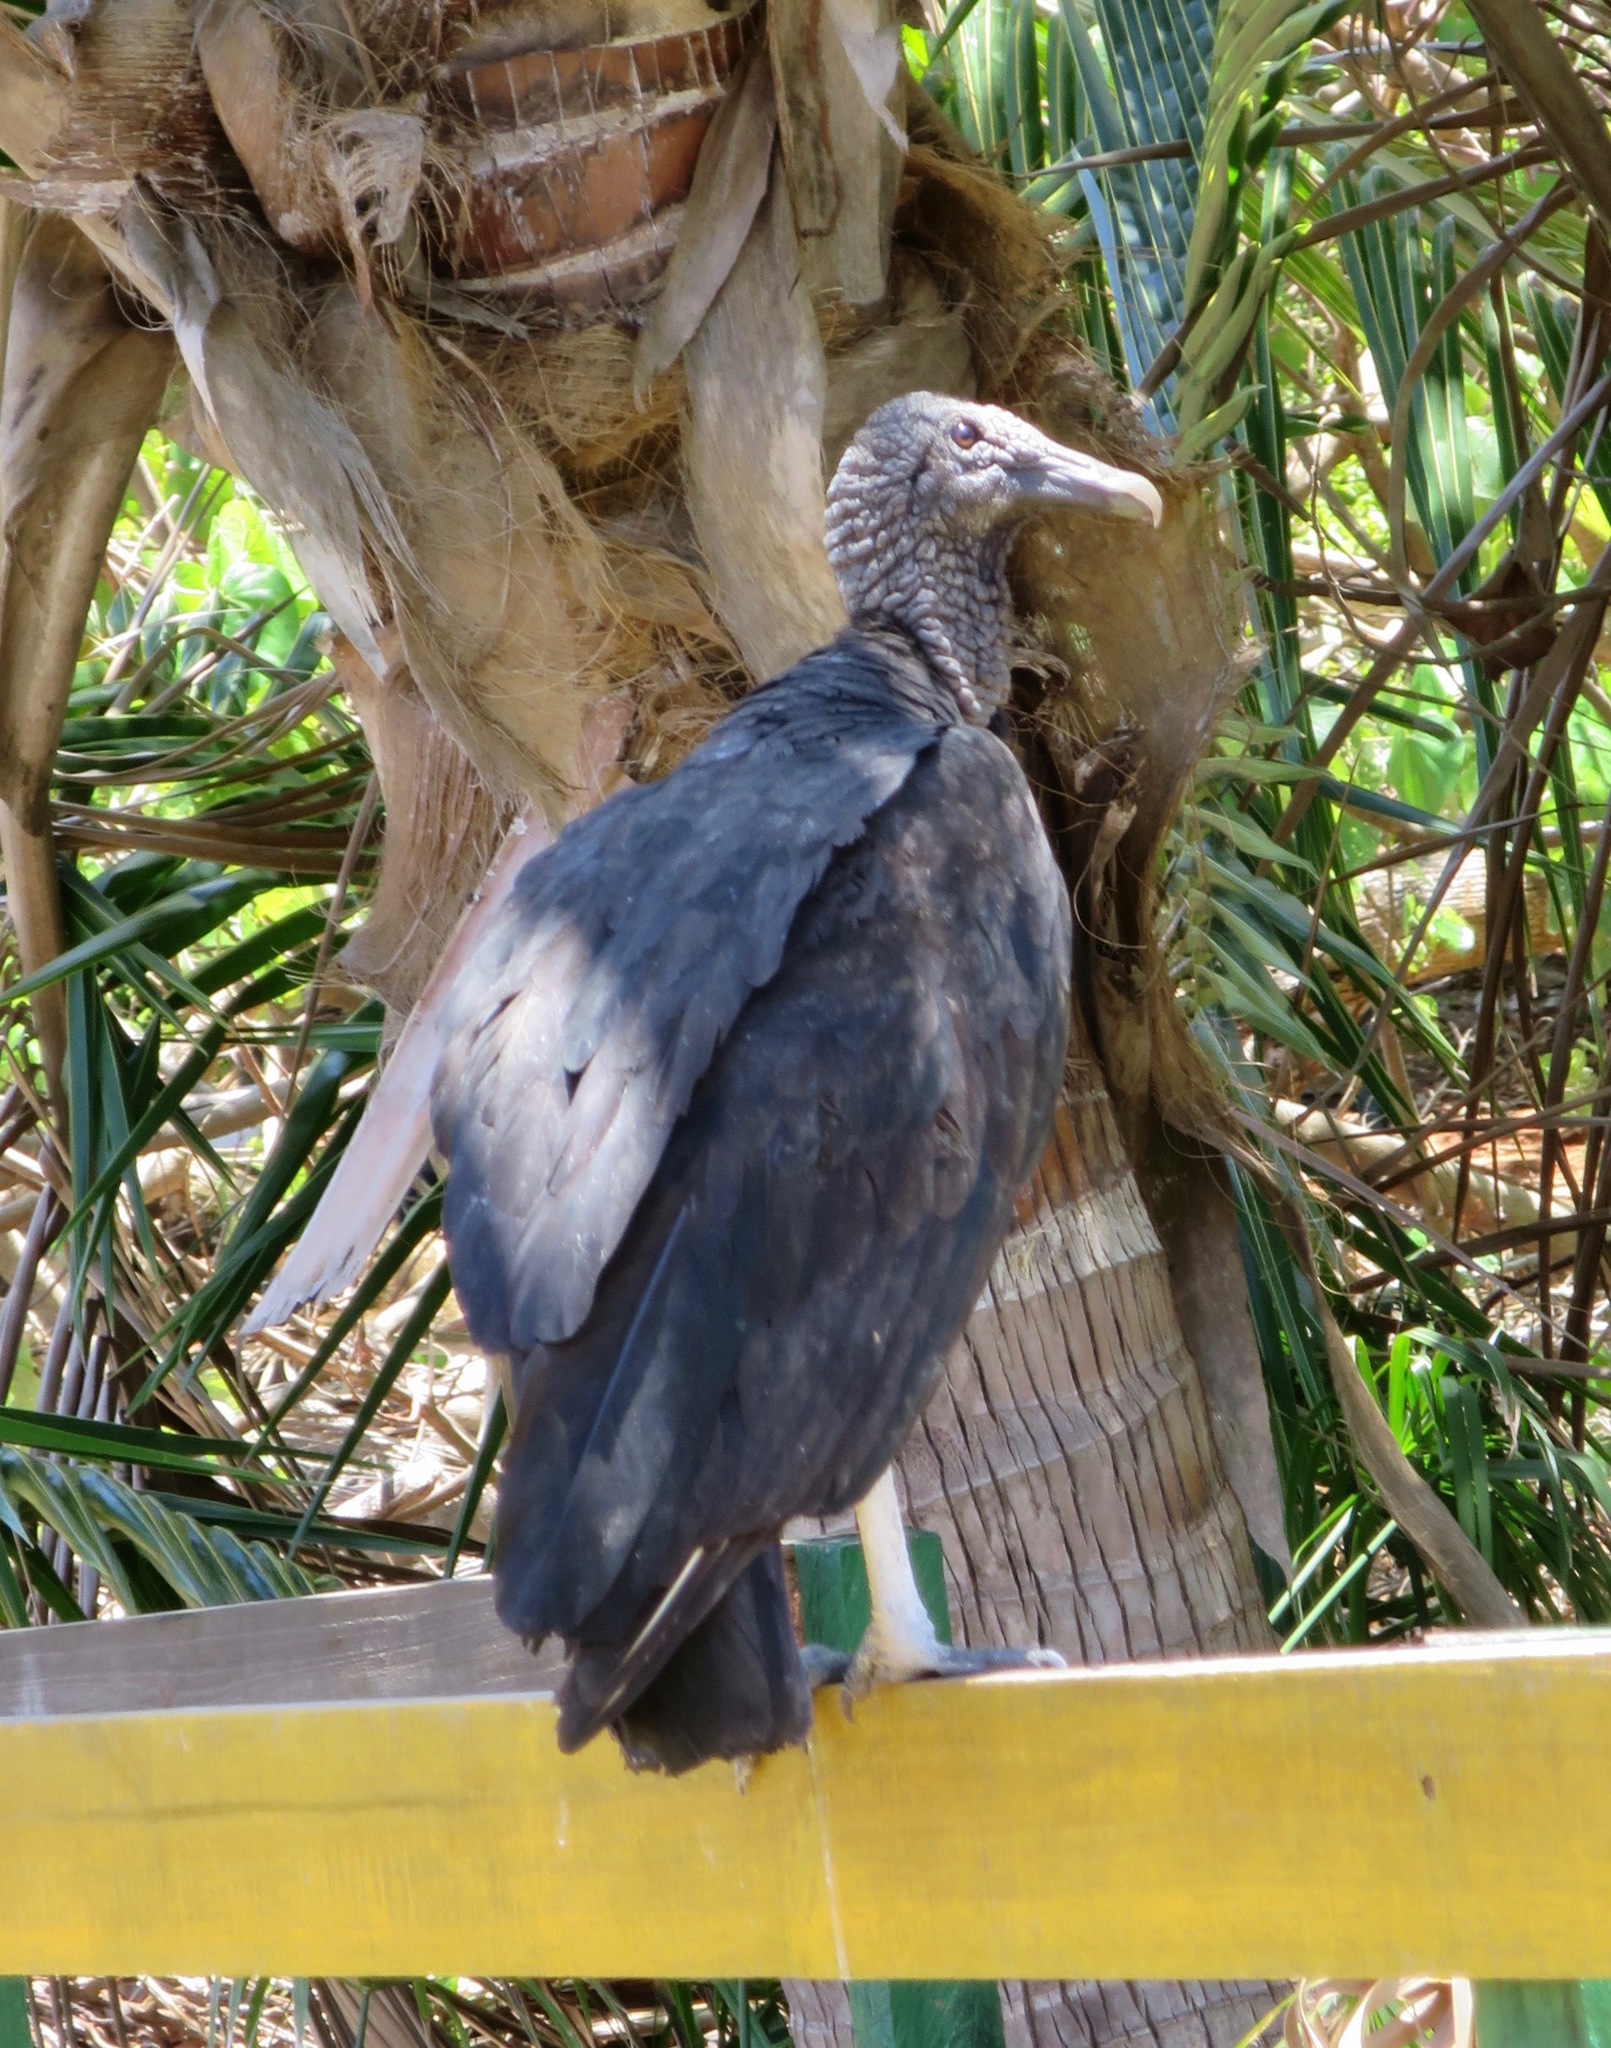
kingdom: Animalia
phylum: Chordata
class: Aves
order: Accipitriformes
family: Cathartidae
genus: Coragyps
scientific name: Coragyps atratus
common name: Black vulture
